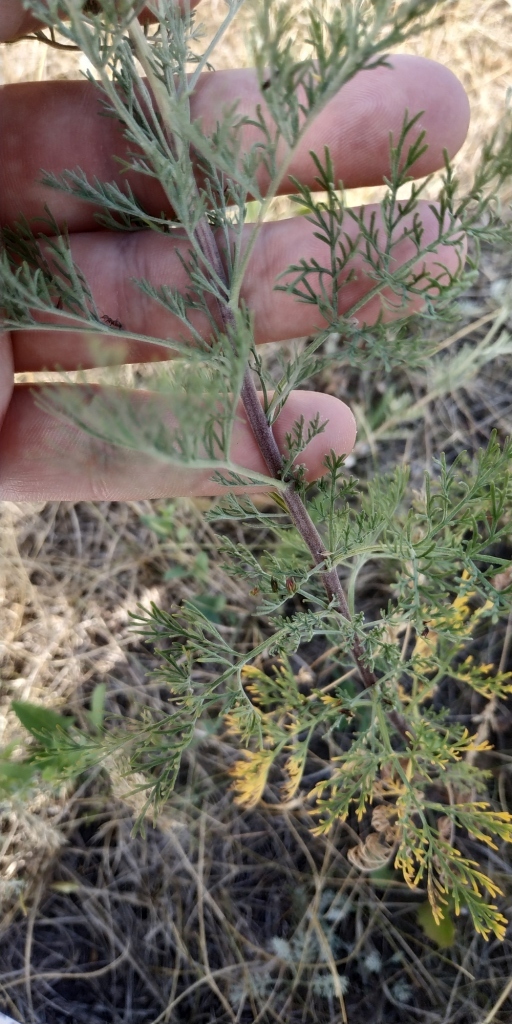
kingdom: Plantae
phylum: Tracheophyta
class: Magnoliopsida
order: Asterales
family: Asteraceae
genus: Artemisia
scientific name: Artemisia abrotanum
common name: Southernwood
